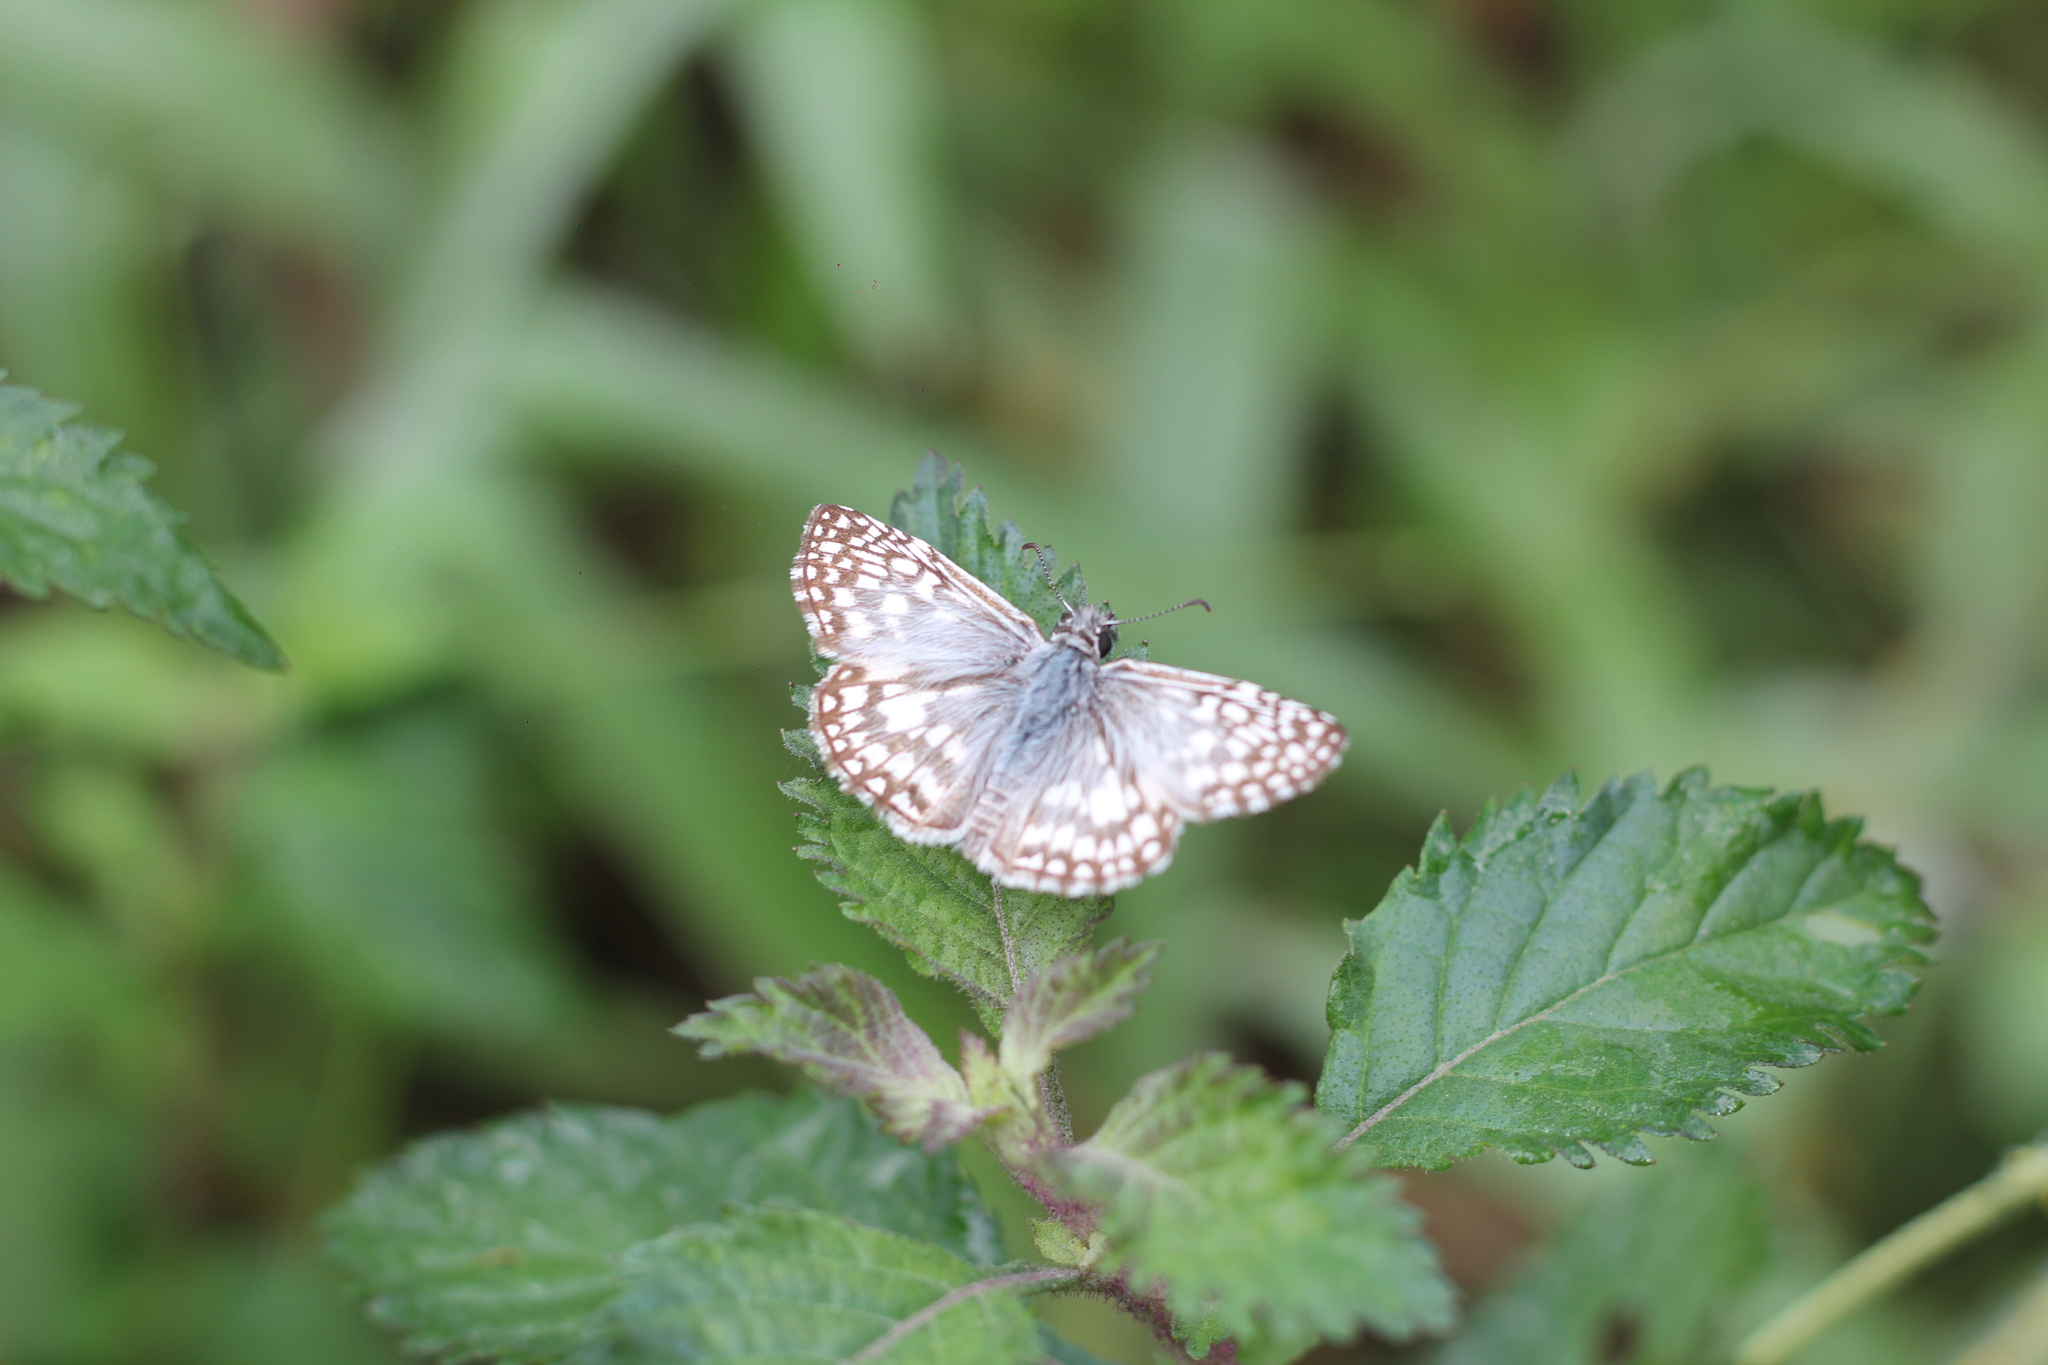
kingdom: Animalia
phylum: Arthropoda
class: Insecta
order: Lepidoptera
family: Hesperiidae
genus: Pyrgus
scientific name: Pyrgus oileus
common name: Tropical checkered-skipper
